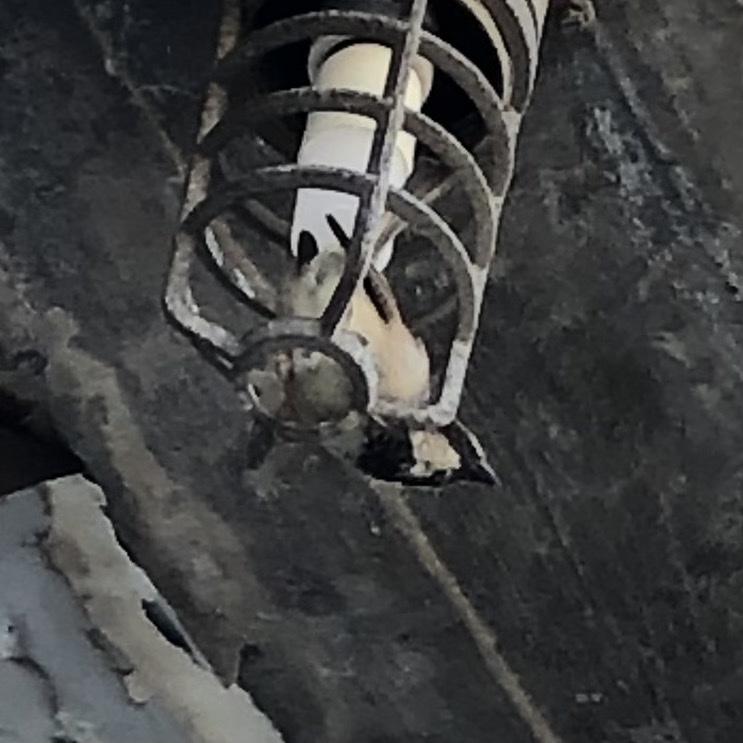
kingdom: Animalia
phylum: Chordata
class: Aves
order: Passeriformes
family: Passeridae
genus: Passer
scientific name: Passer domesticus
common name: House sparrow
